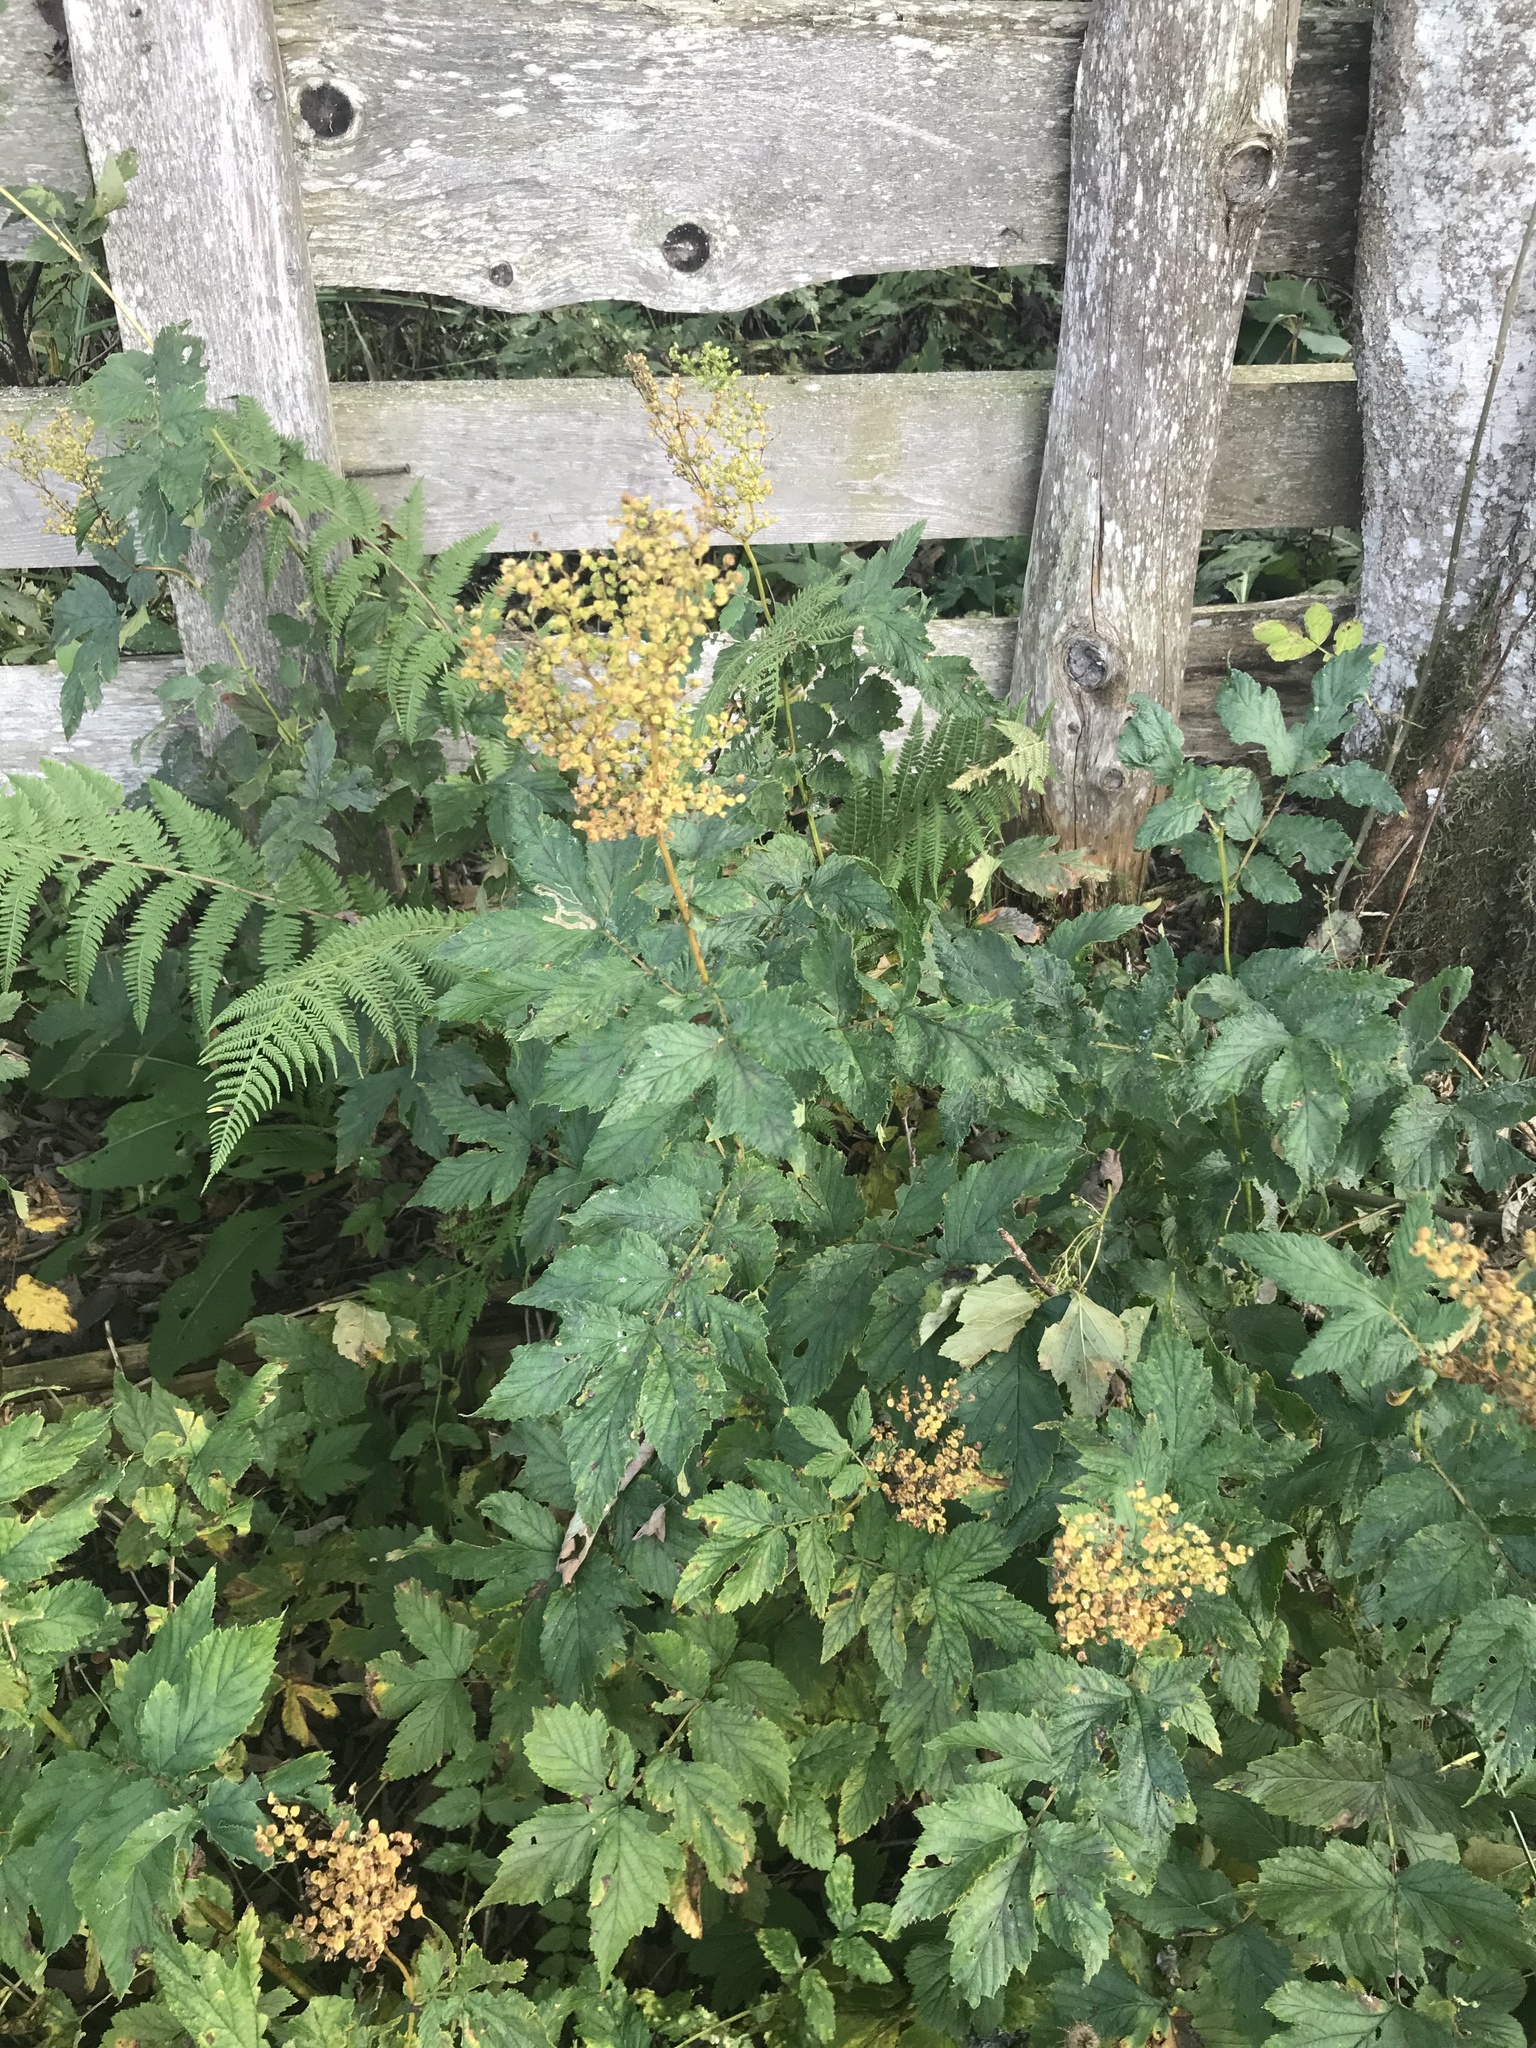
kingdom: Plantae
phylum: Tracheophyta
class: Magnoliopsida
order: Rosales
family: Rosaceae
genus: Filipendula
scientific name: Filipendula ulmaria
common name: Meadowsweet
